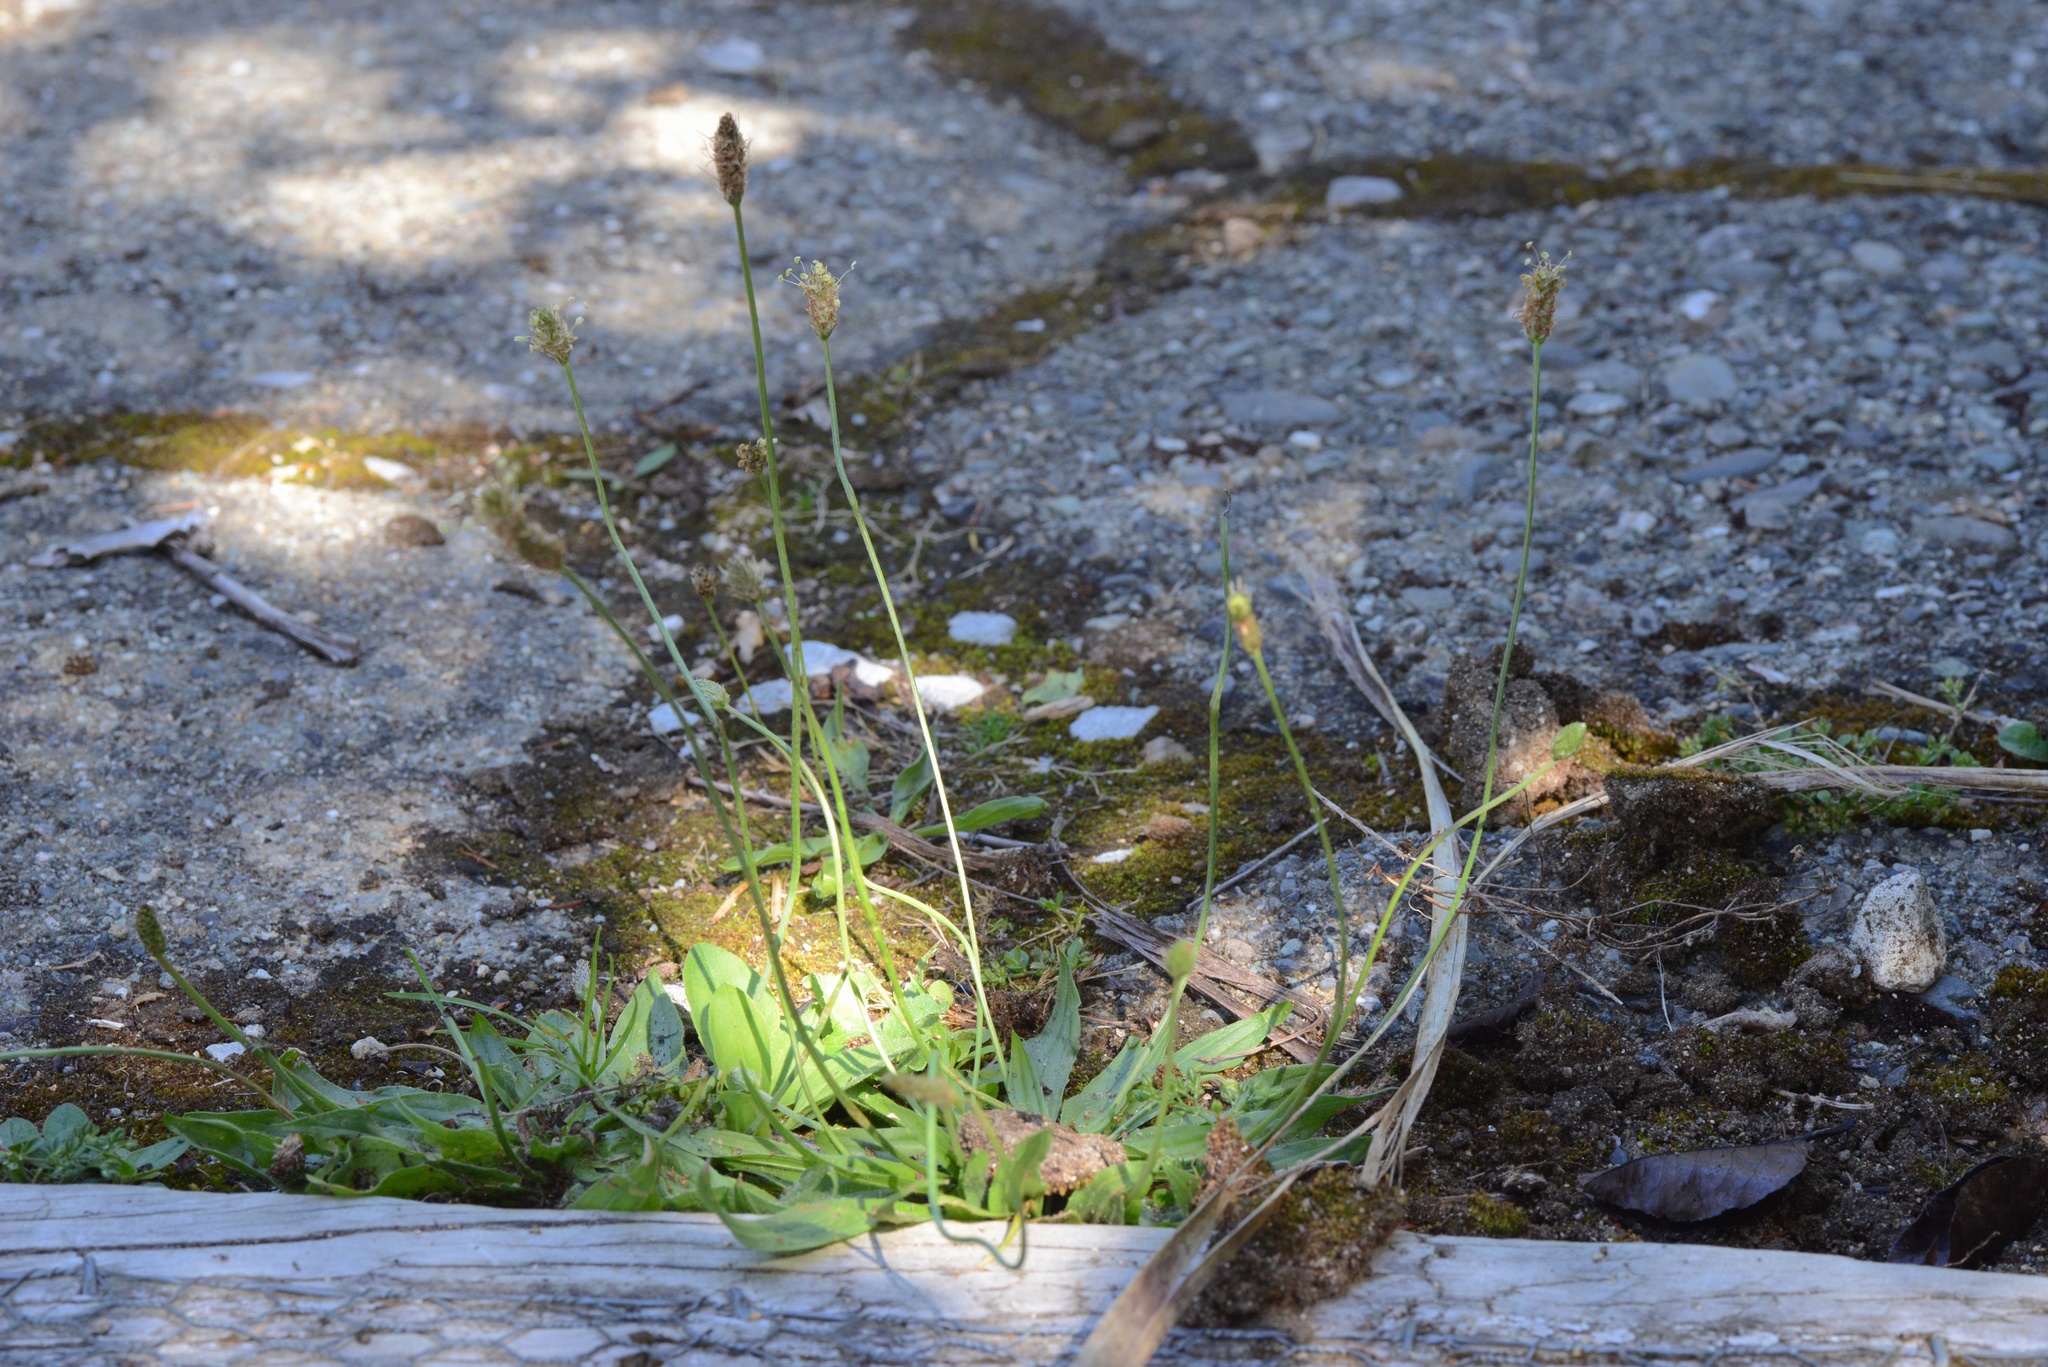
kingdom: Plantae
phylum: Tracheophyta
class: Magnoliopsida
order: Lamiales
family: Plantaginaceae
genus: Plantago
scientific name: Plantago lanceolata
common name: Ribwort plantain
